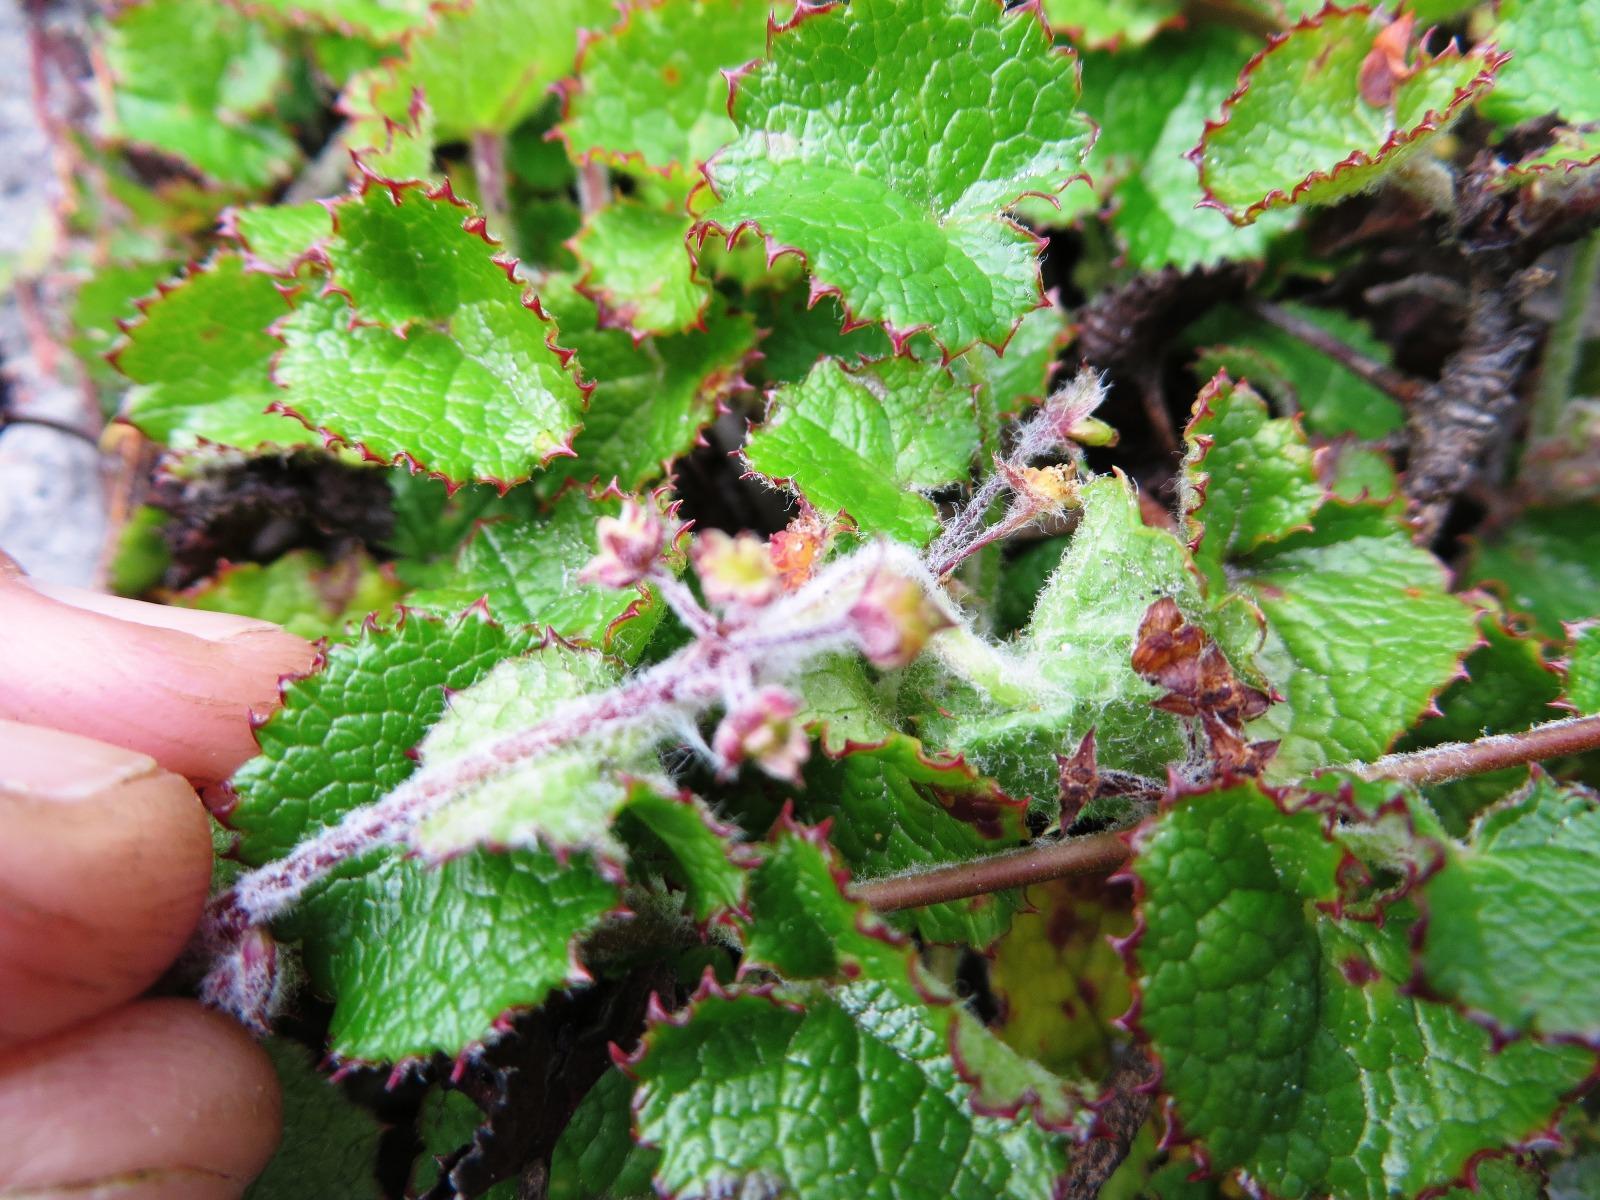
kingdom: Plantae
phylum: Tracheophyta
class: Magnoliopsida
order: Apiales
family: Apiaceae
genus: Centella
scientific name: Centella eriantha
